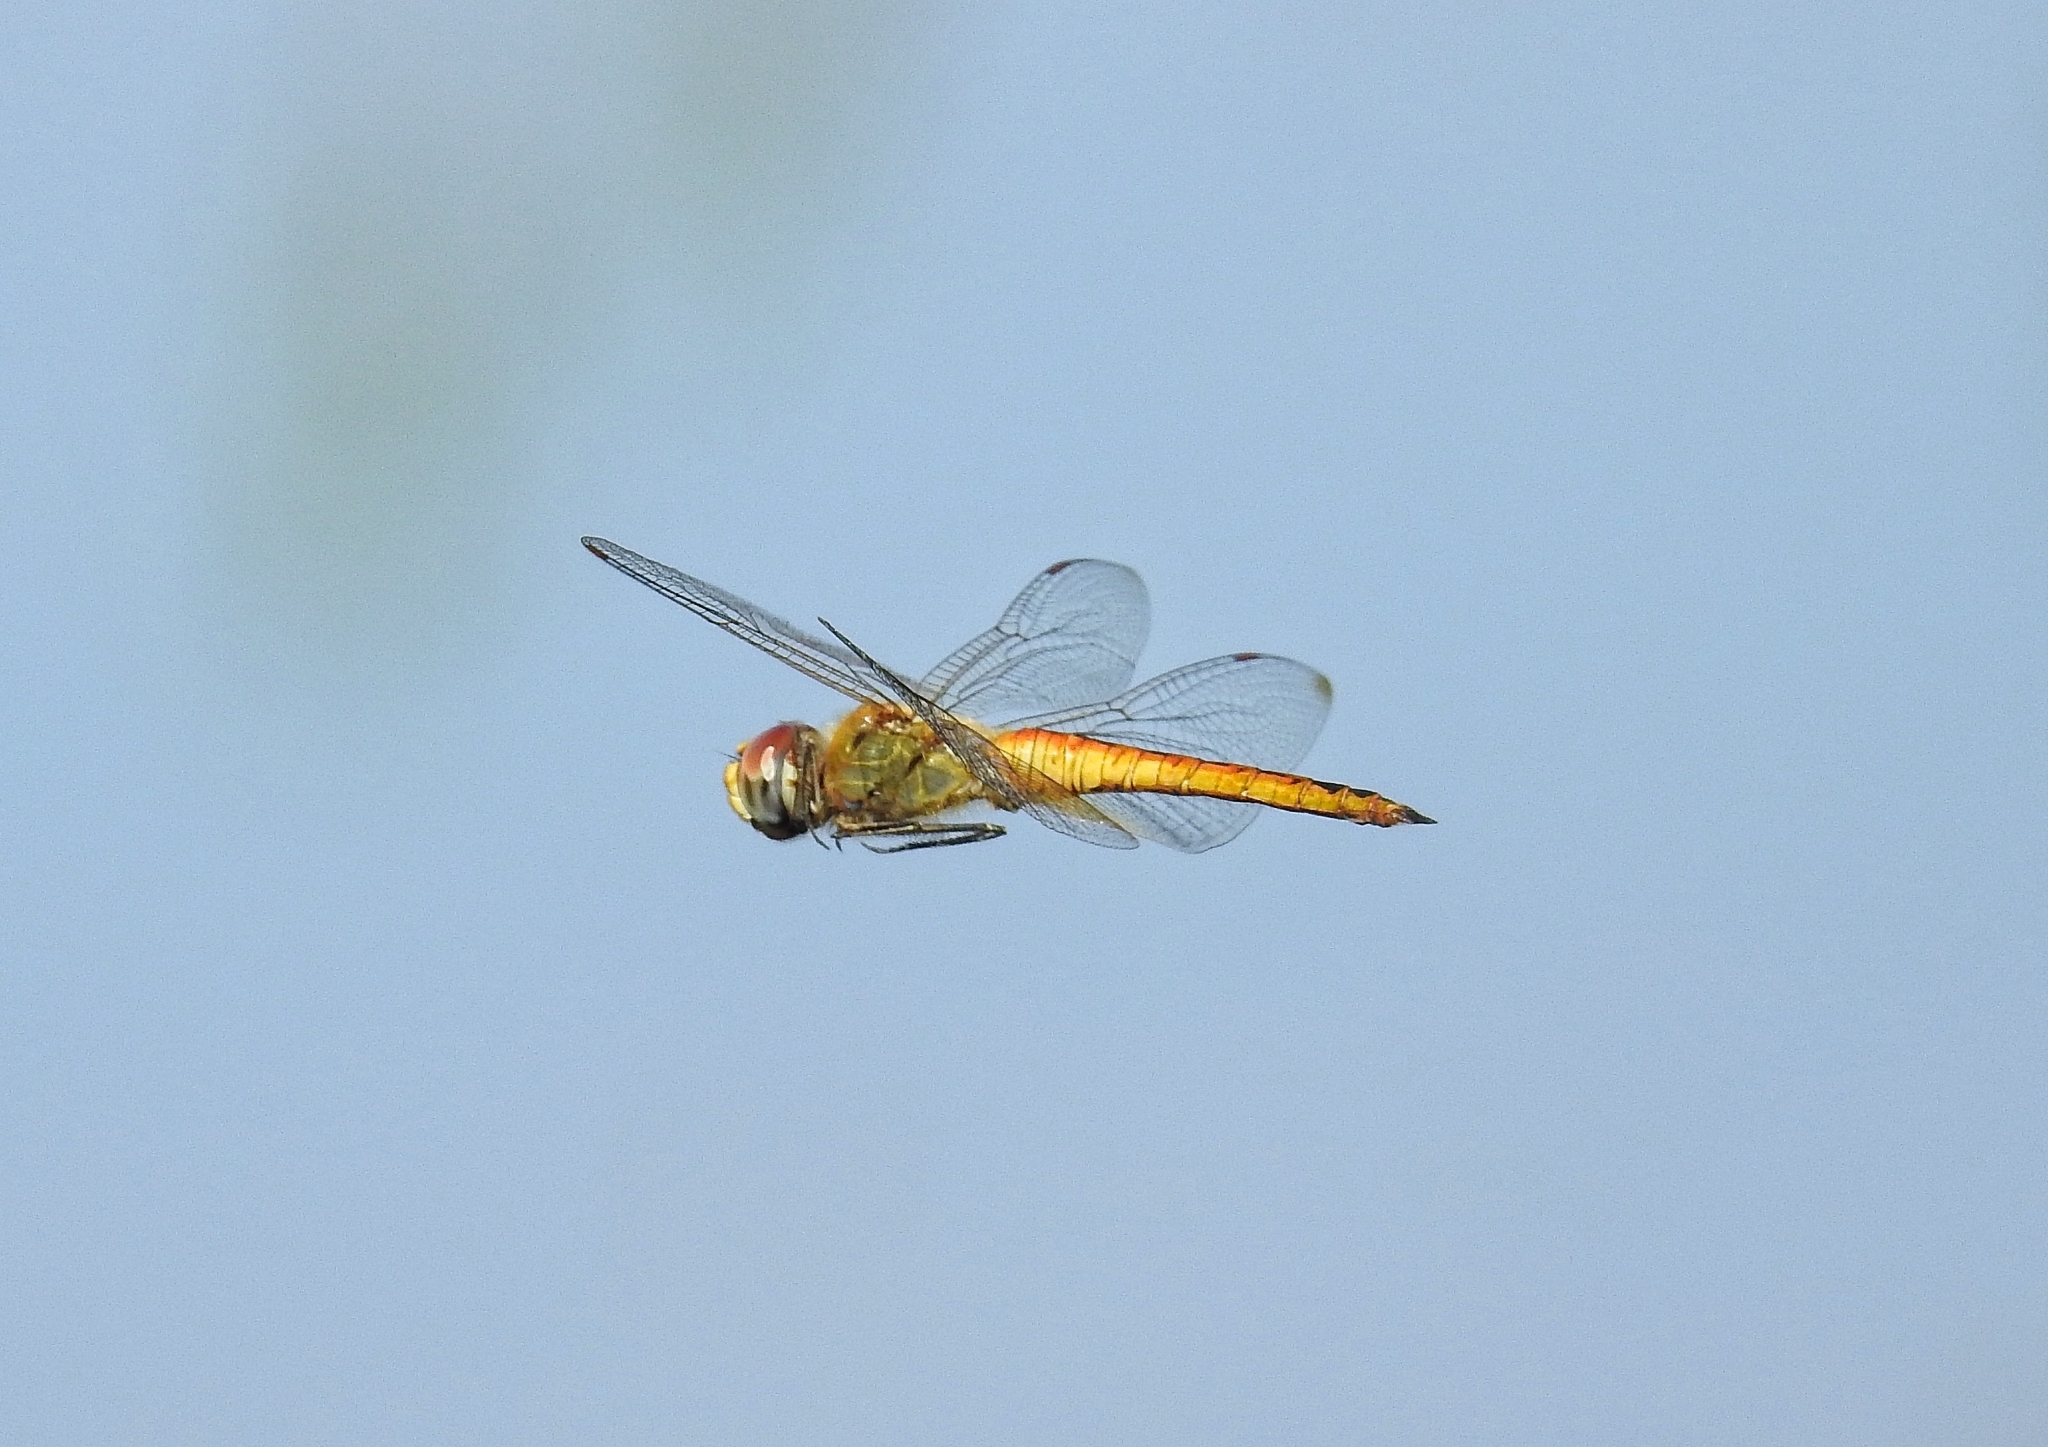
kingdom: Animalia
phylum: Arthropoda
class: Insecta
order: Odonata
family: Libellulidae
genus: Pantala
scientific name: Pantala flavescens
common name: Wandering glider
